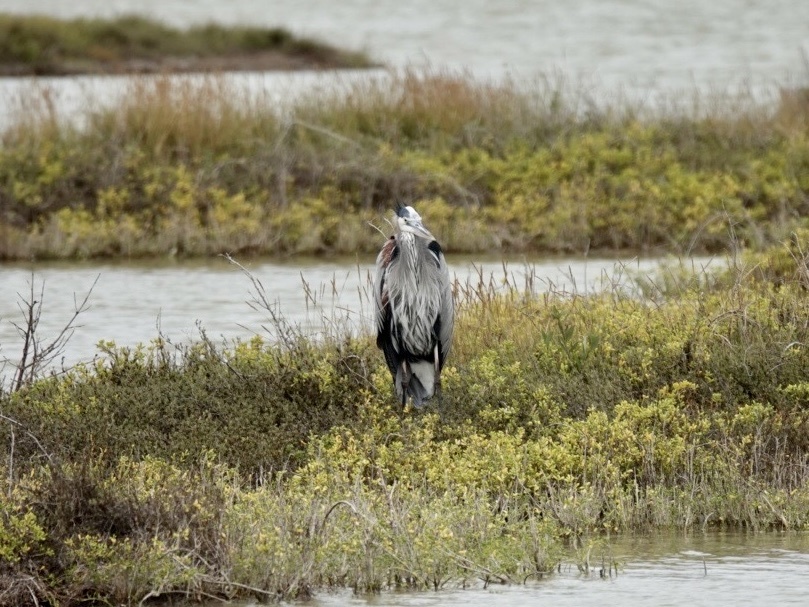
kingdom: Animalia
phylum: Chordata
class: Aves
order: Pelecaniformes
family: Ardeidae
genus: Ardea
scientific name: Ardea herodias
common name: Great blue heron
